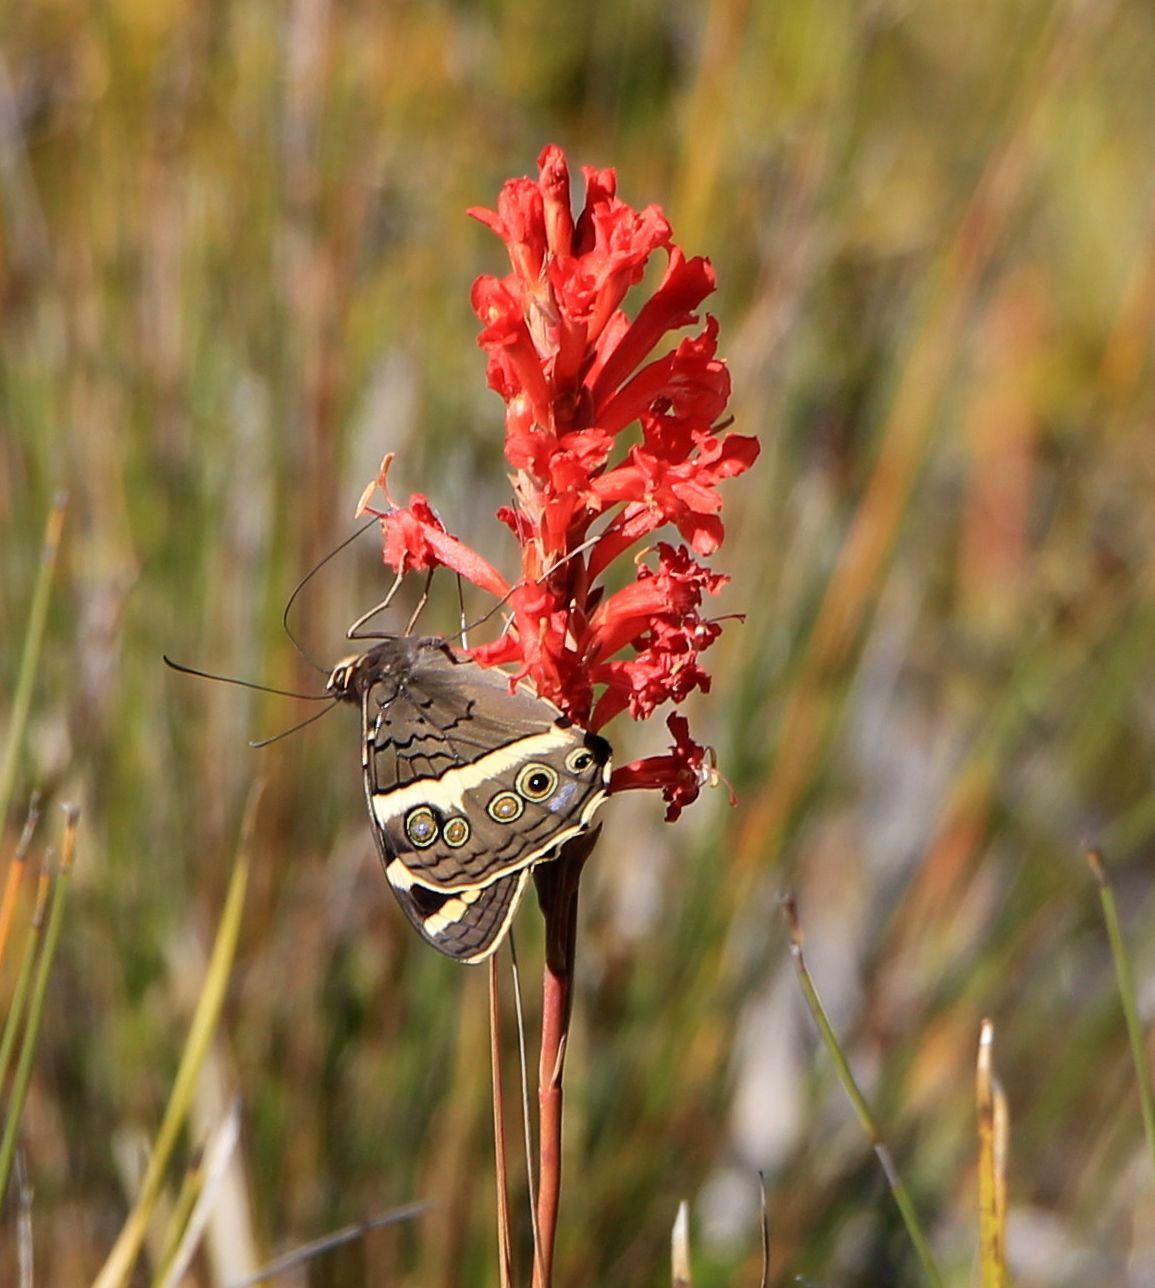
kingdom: Animalia
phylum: Arthropoda
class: Insecta
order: Lepidoptera
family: Nymphalidae
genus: Meneris
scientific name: Meneris Aeropetes tulbaghia
